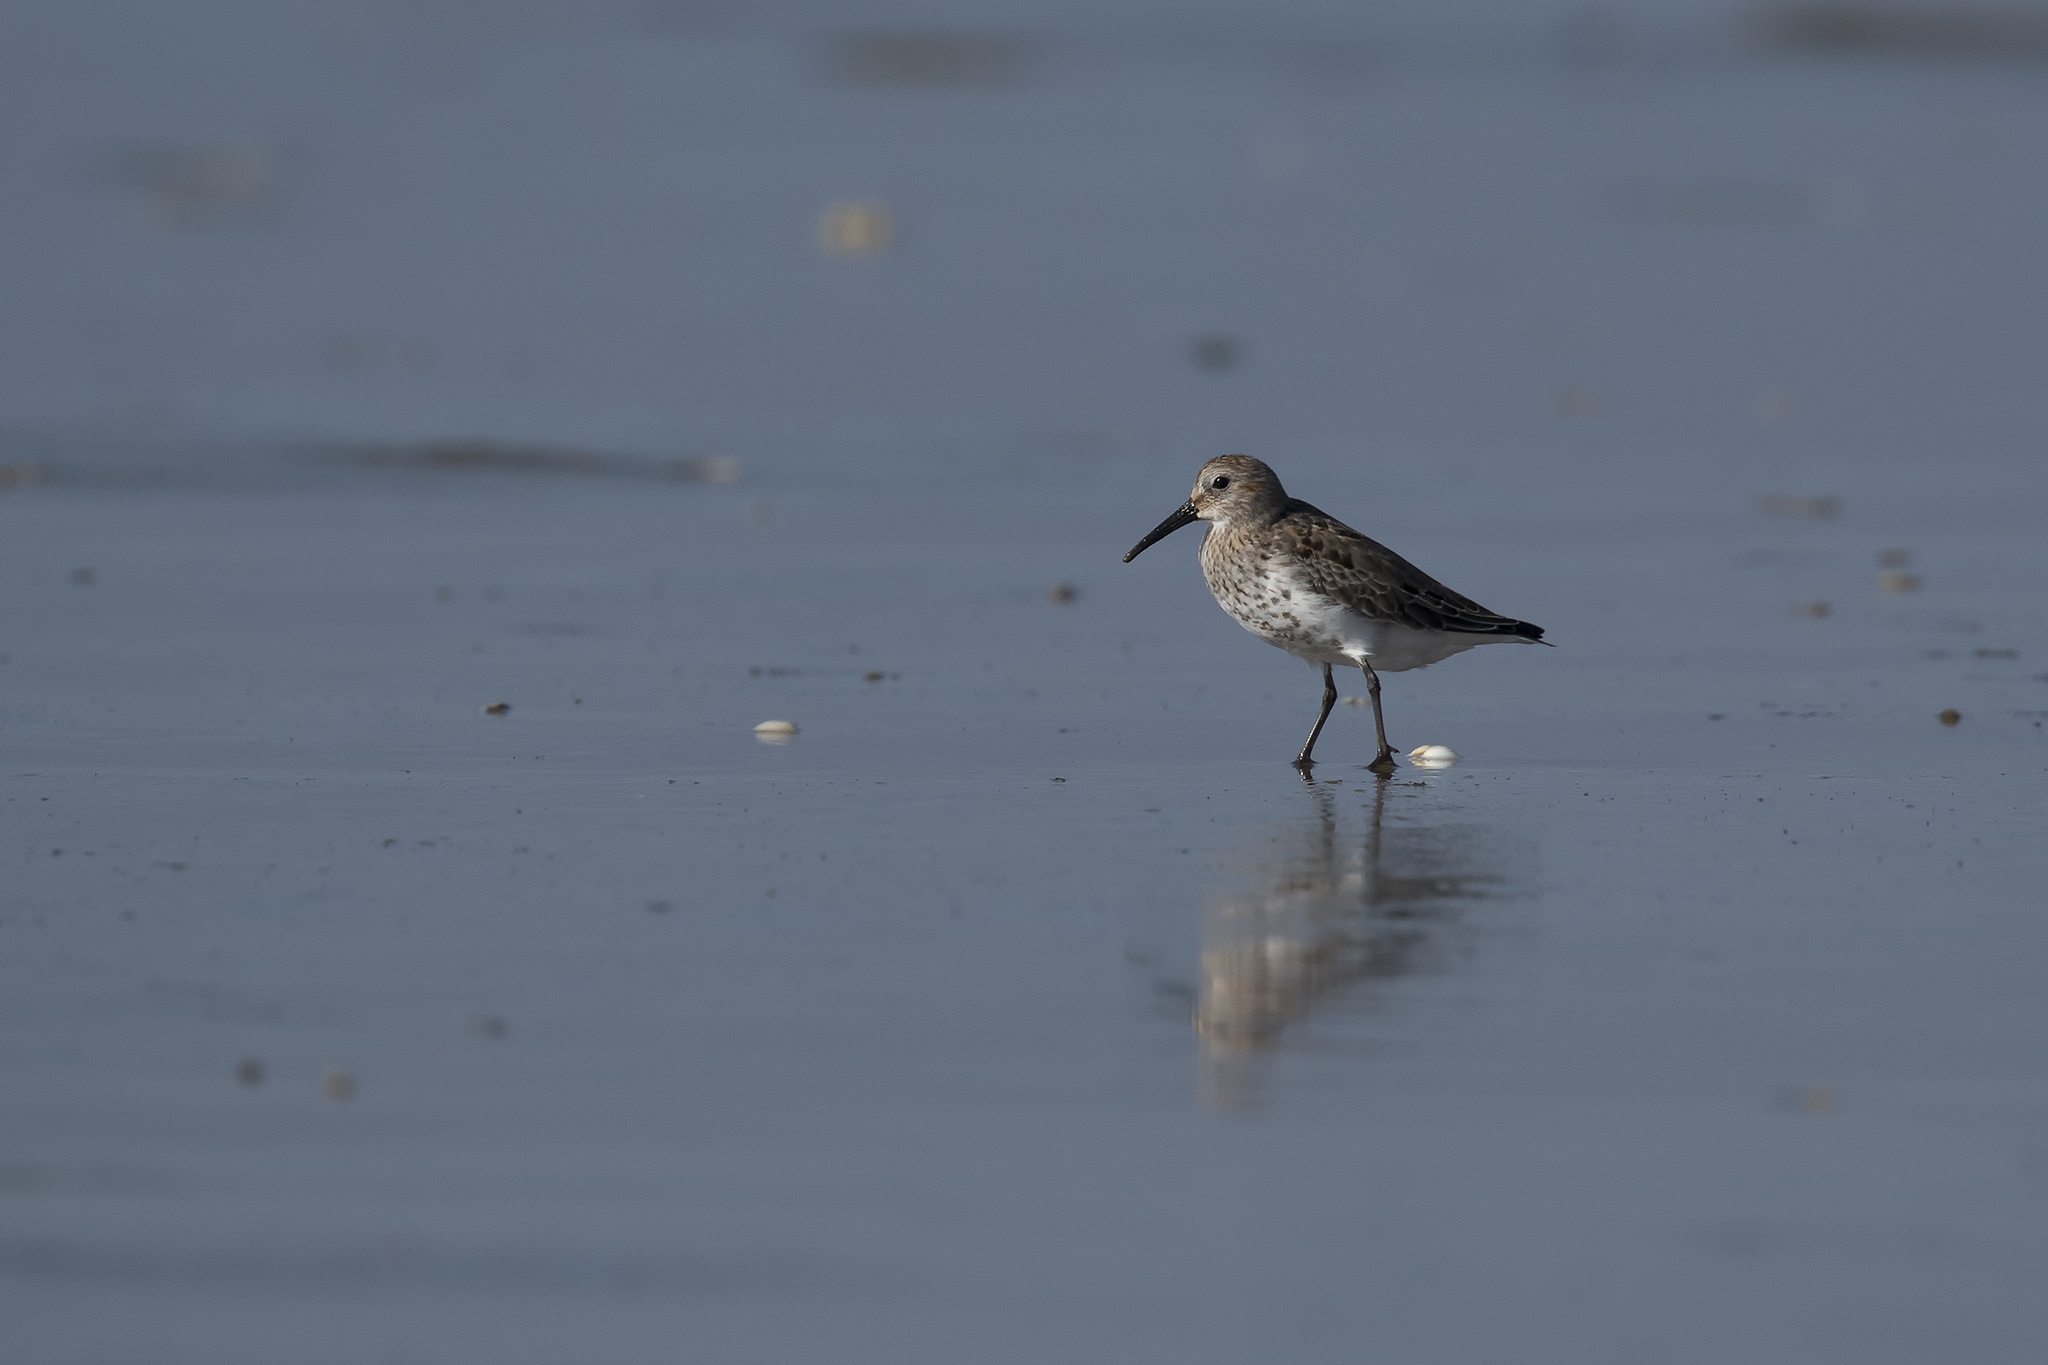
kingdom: Animalia
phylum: Chordata
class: Aves
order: Charadriiformes
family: Scolopacidae
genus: Calidris
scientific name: Calidris alpina
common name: Dunlin
